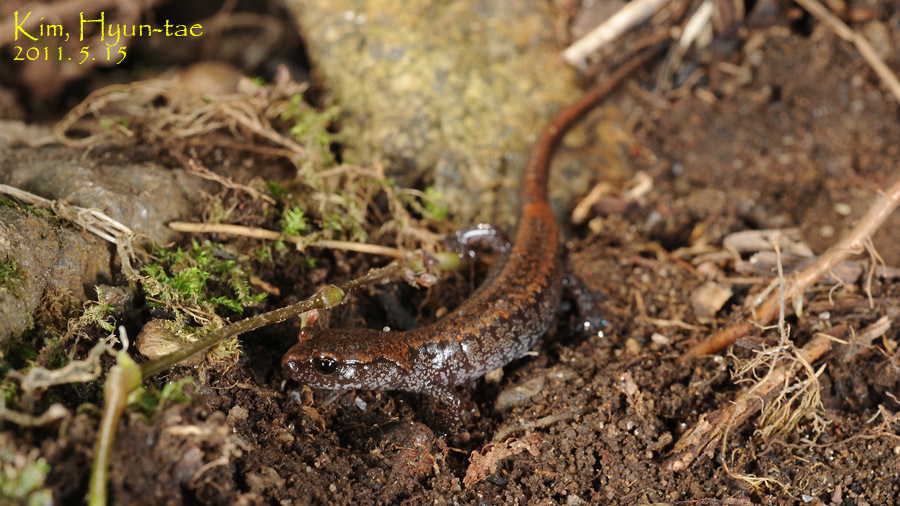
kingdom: Animalia
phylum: Chordata
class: Amphibia
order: Caudata
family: Plethodontidae
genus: Karsenia
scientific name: Karsenia koreana
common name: Korean crevice salamander
